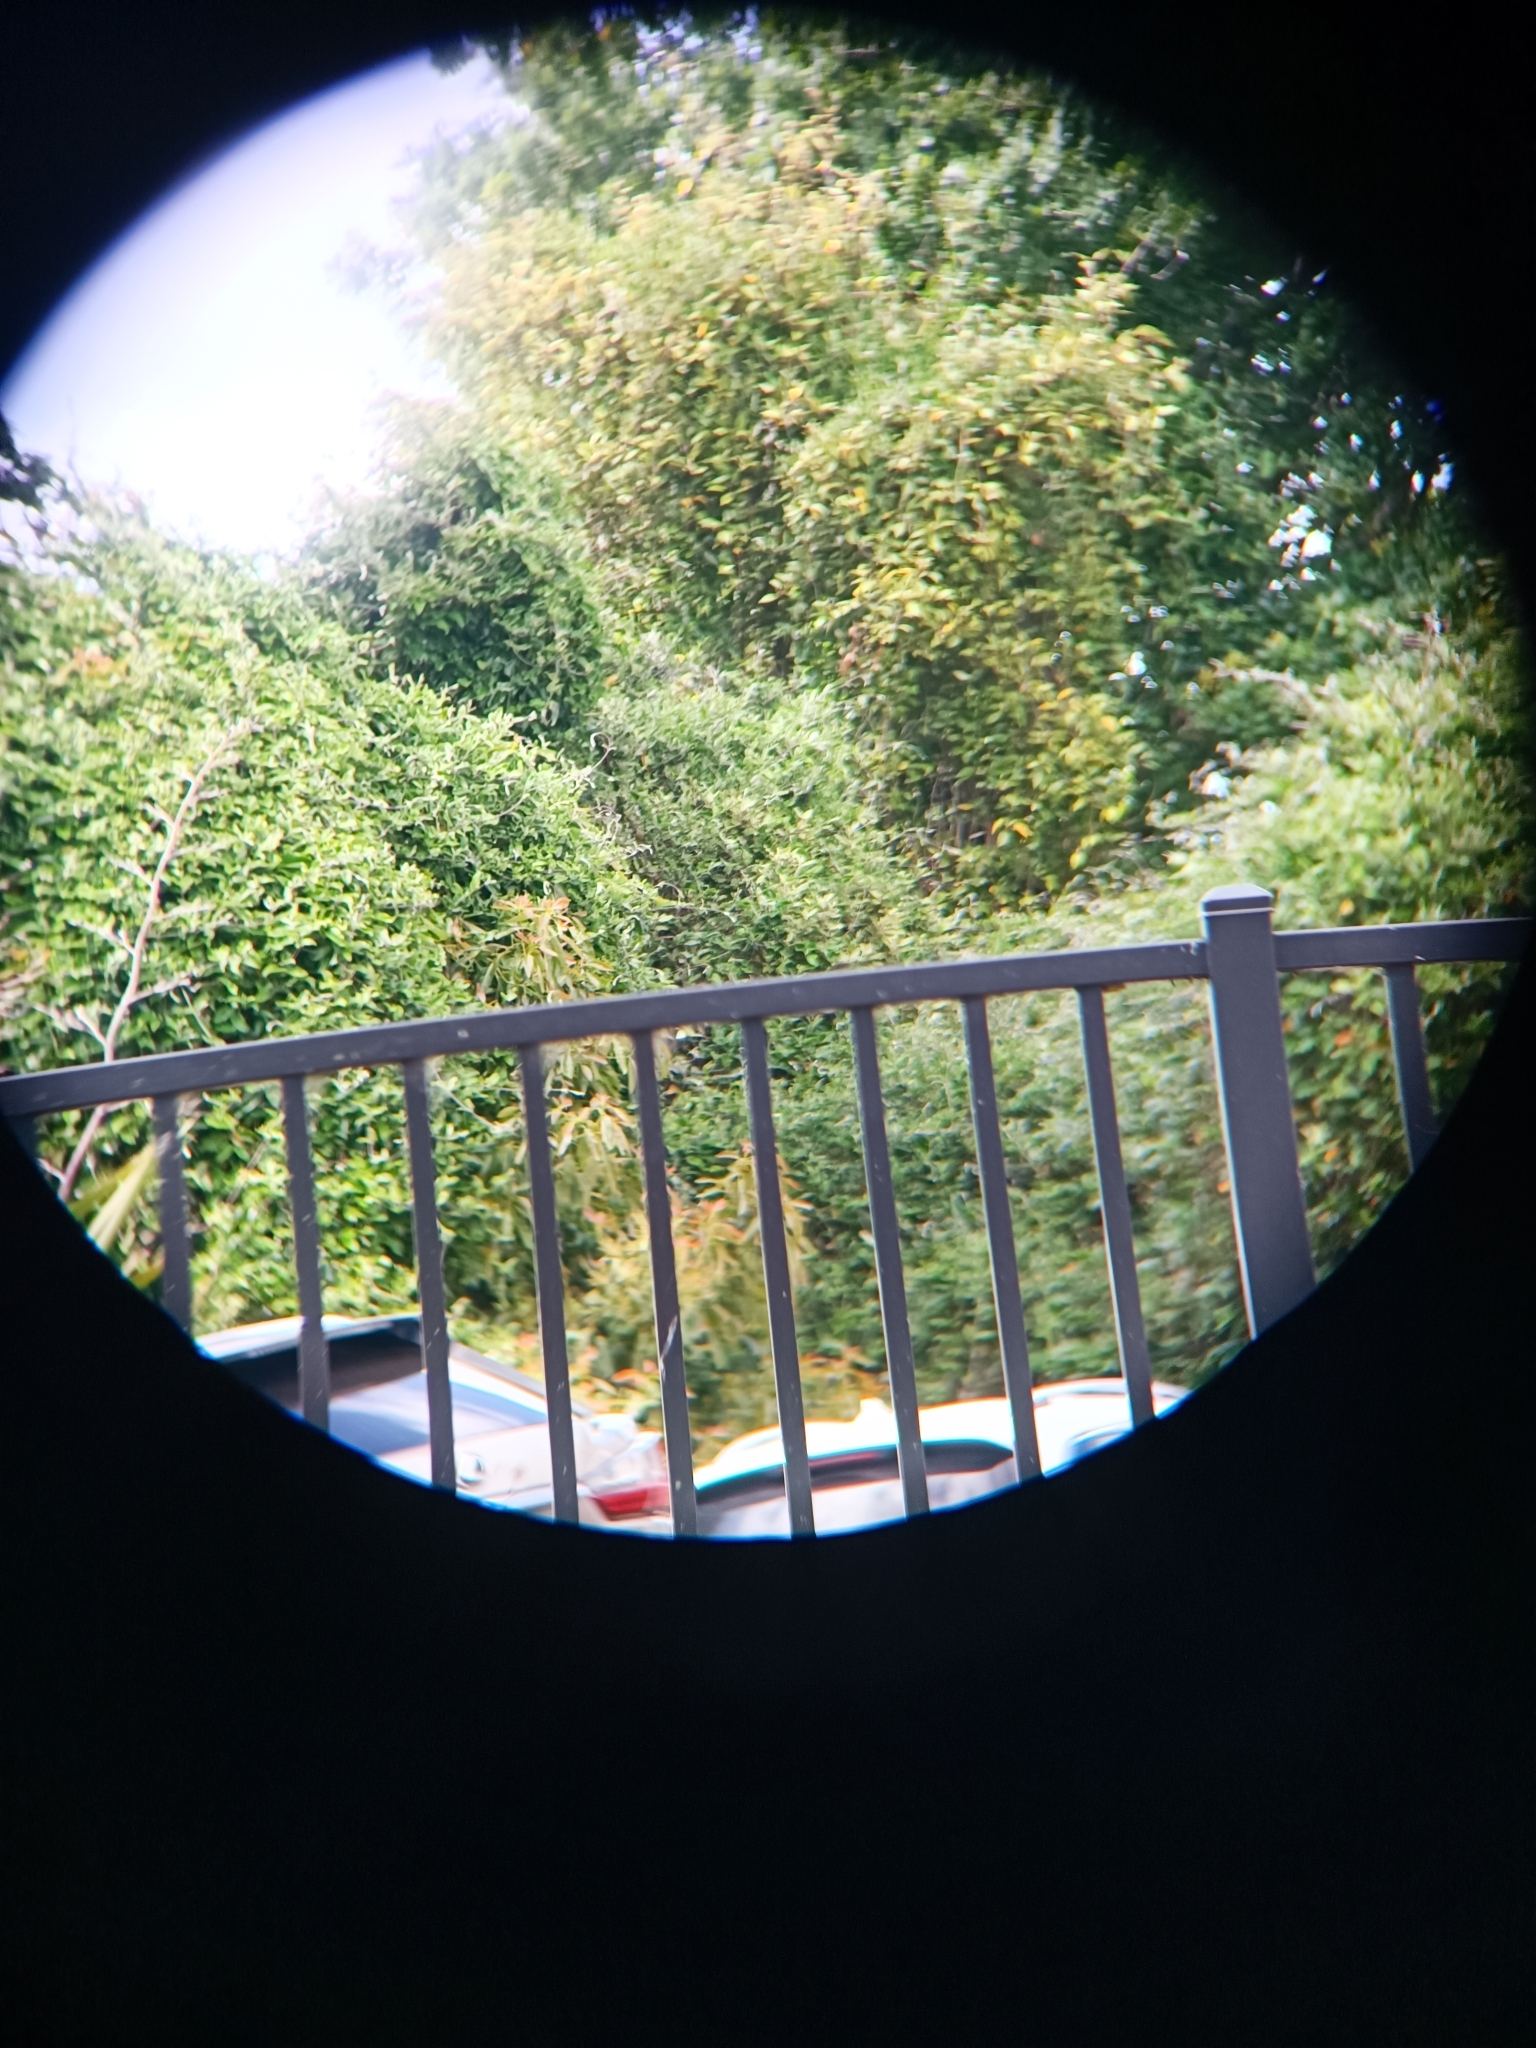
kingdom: Plantae
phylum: Tracheophyta
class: Magnoliopsida
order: Gentianales
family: Apocynaceae
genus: Araujia
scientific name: Araujia sericifera
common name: White bladderflower
